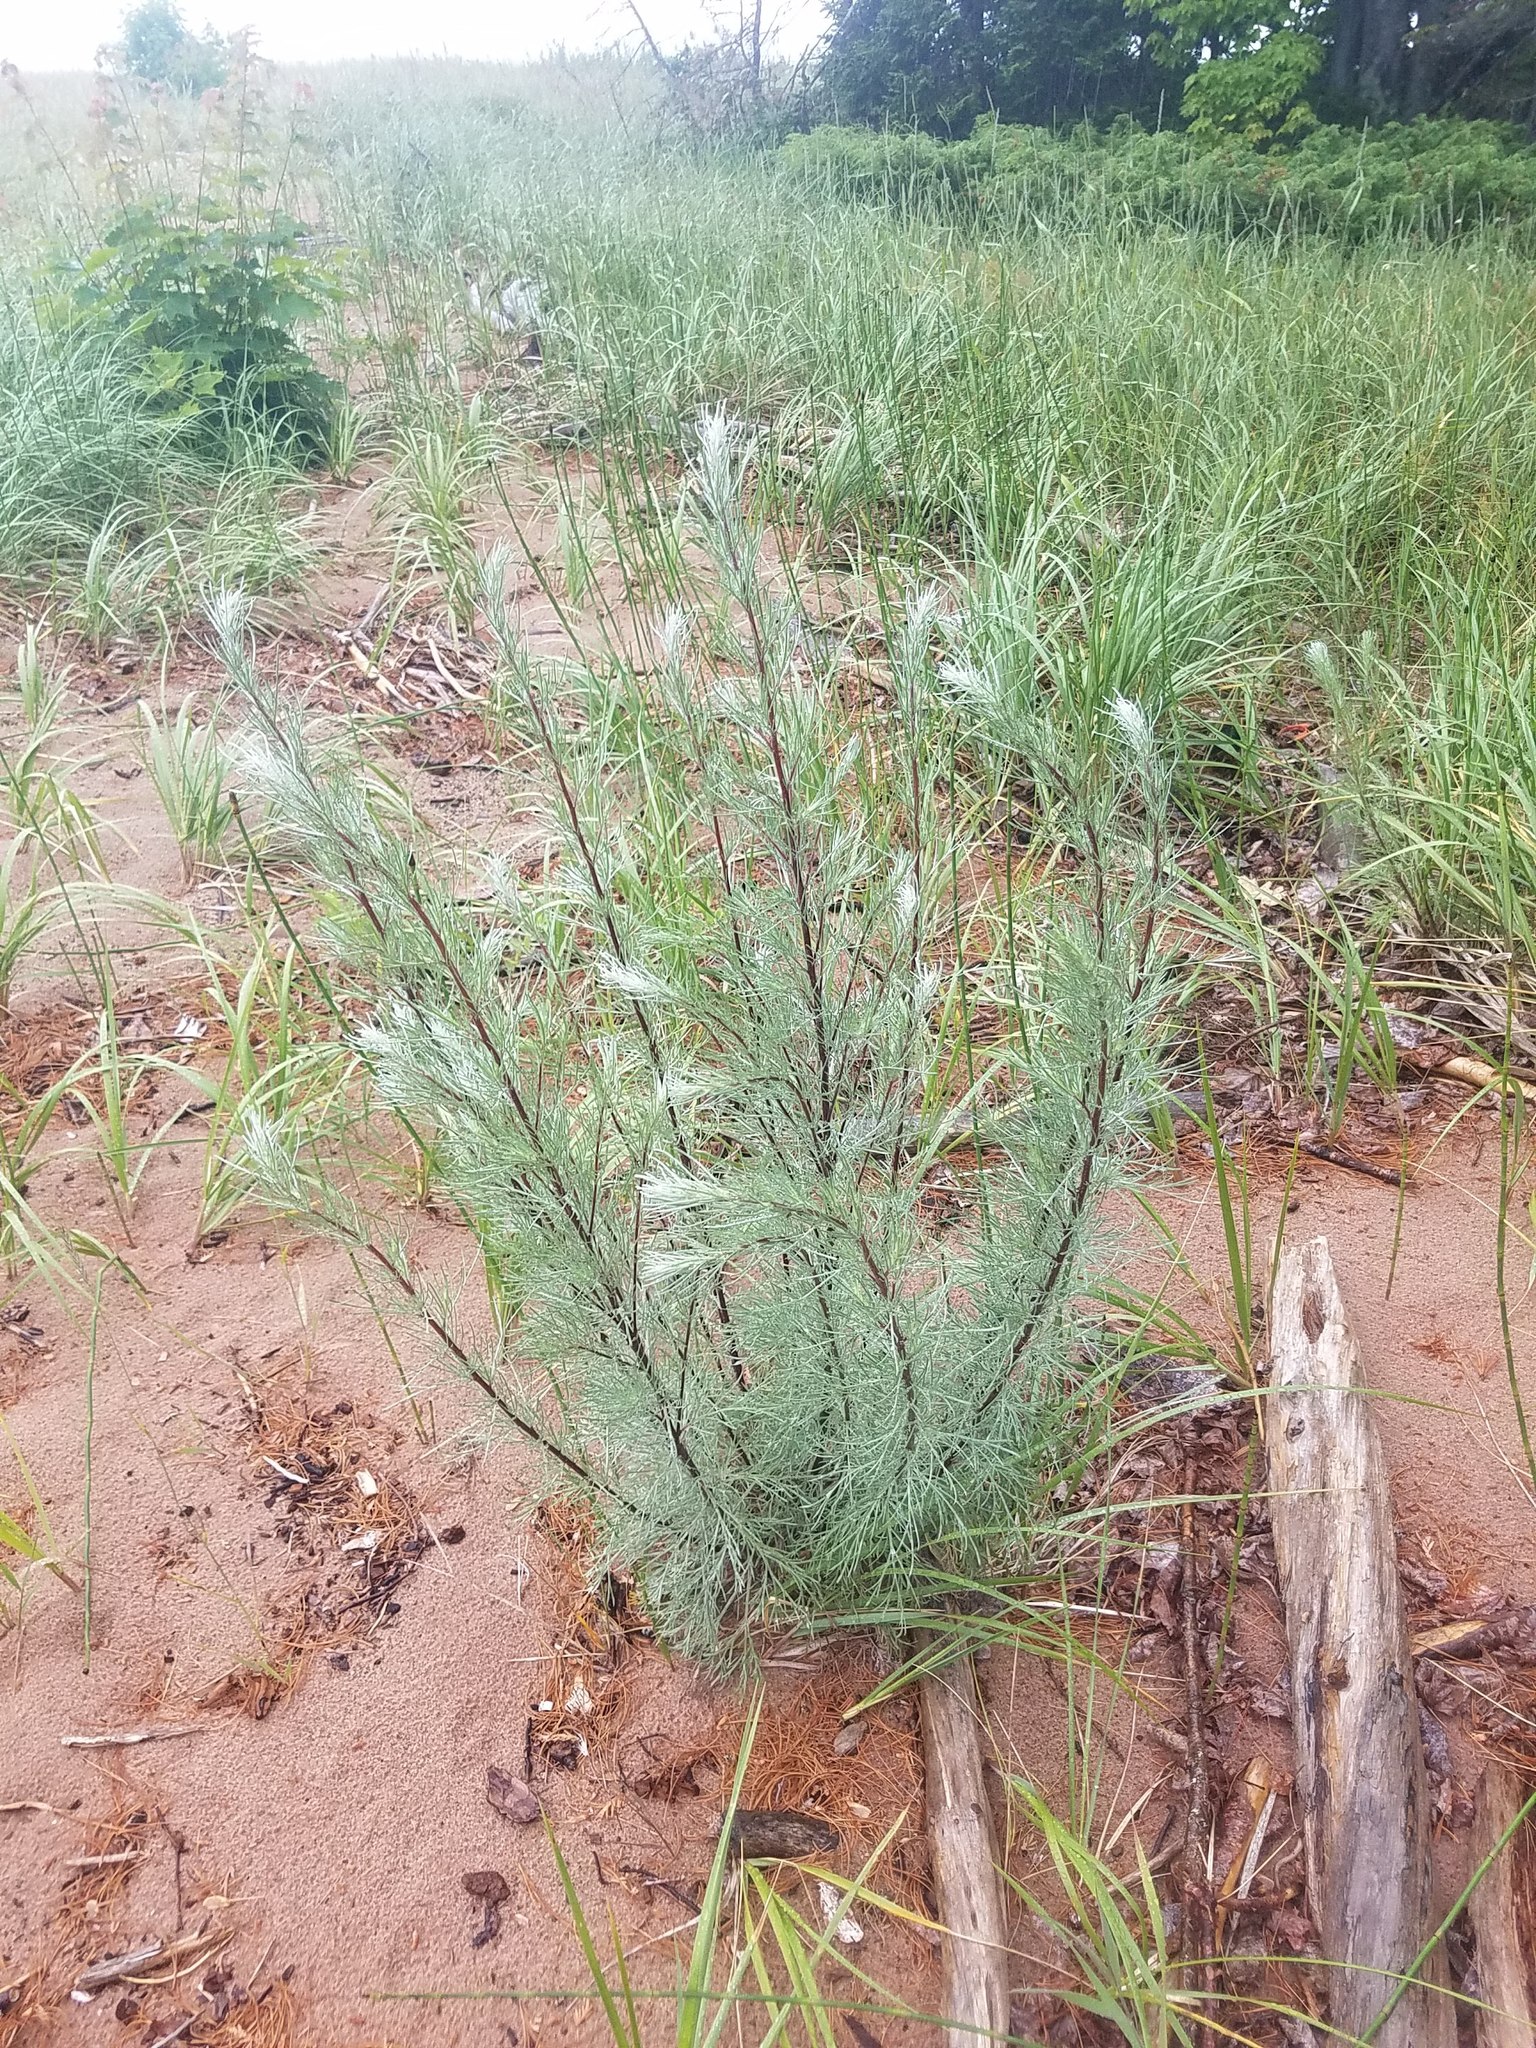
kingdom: Plantae
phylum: Tracheophyta
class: Magnoliopsida
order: Asterales
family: Asteraceae
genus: Artemisia
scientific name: Artemisia campestris
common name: Field wormwood
